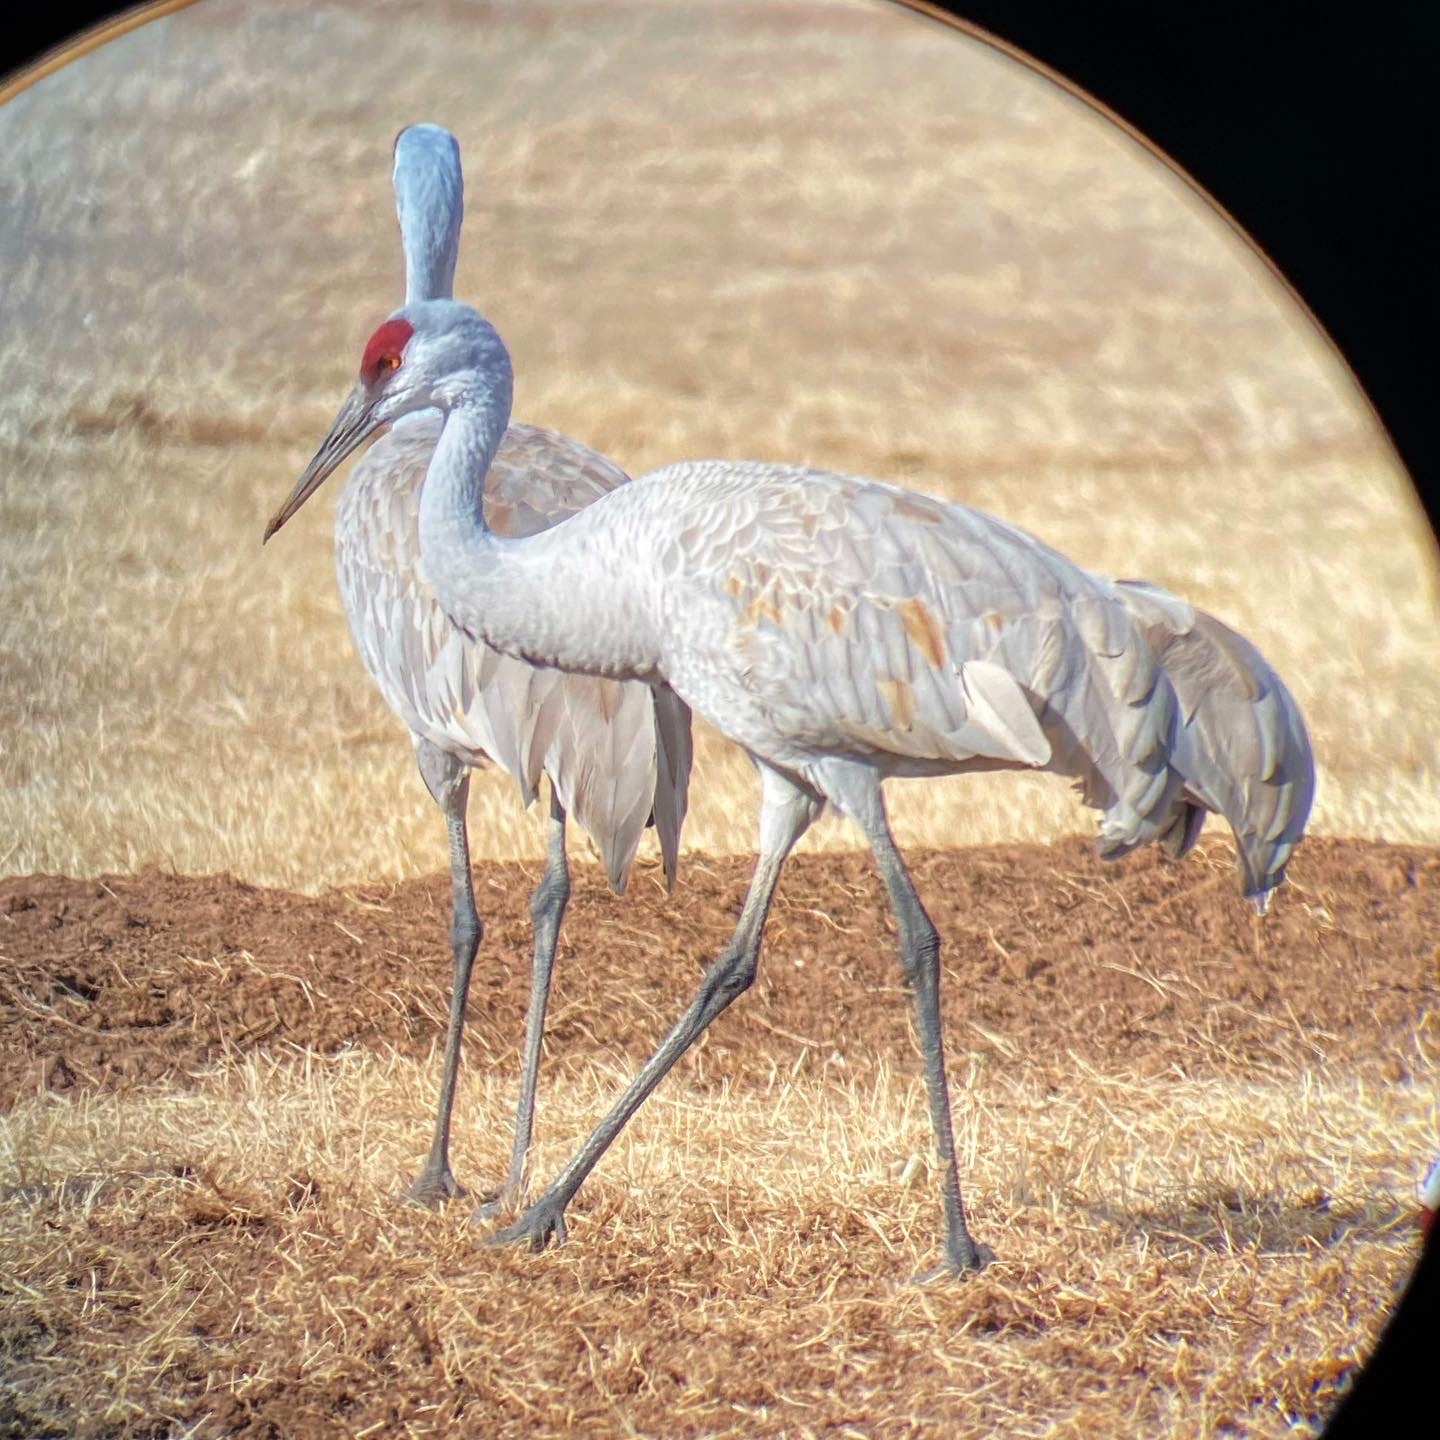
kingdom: Animalia
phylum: Chordata
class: Aves
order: Gruiformes
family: Gruidae
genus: Grus
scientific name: Grus canadensis
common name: Sandhill crane
